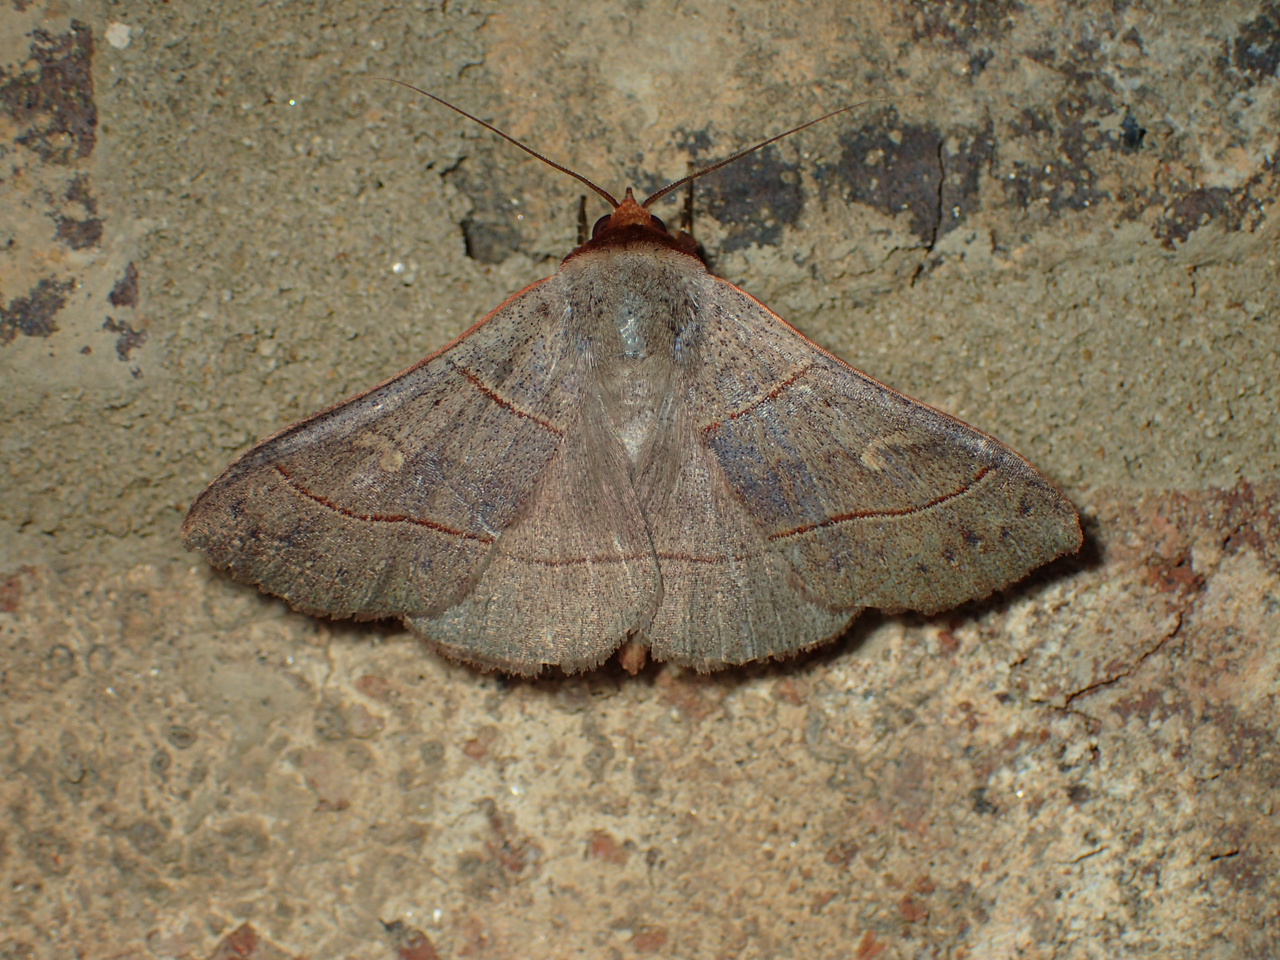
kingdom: Animalia
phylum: Arthropoda
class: Insecta
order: Lepidoptera
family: Erebidae
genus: Panopoda
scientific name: Panopoda rufimargo
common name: Red-lined panopoda moth
